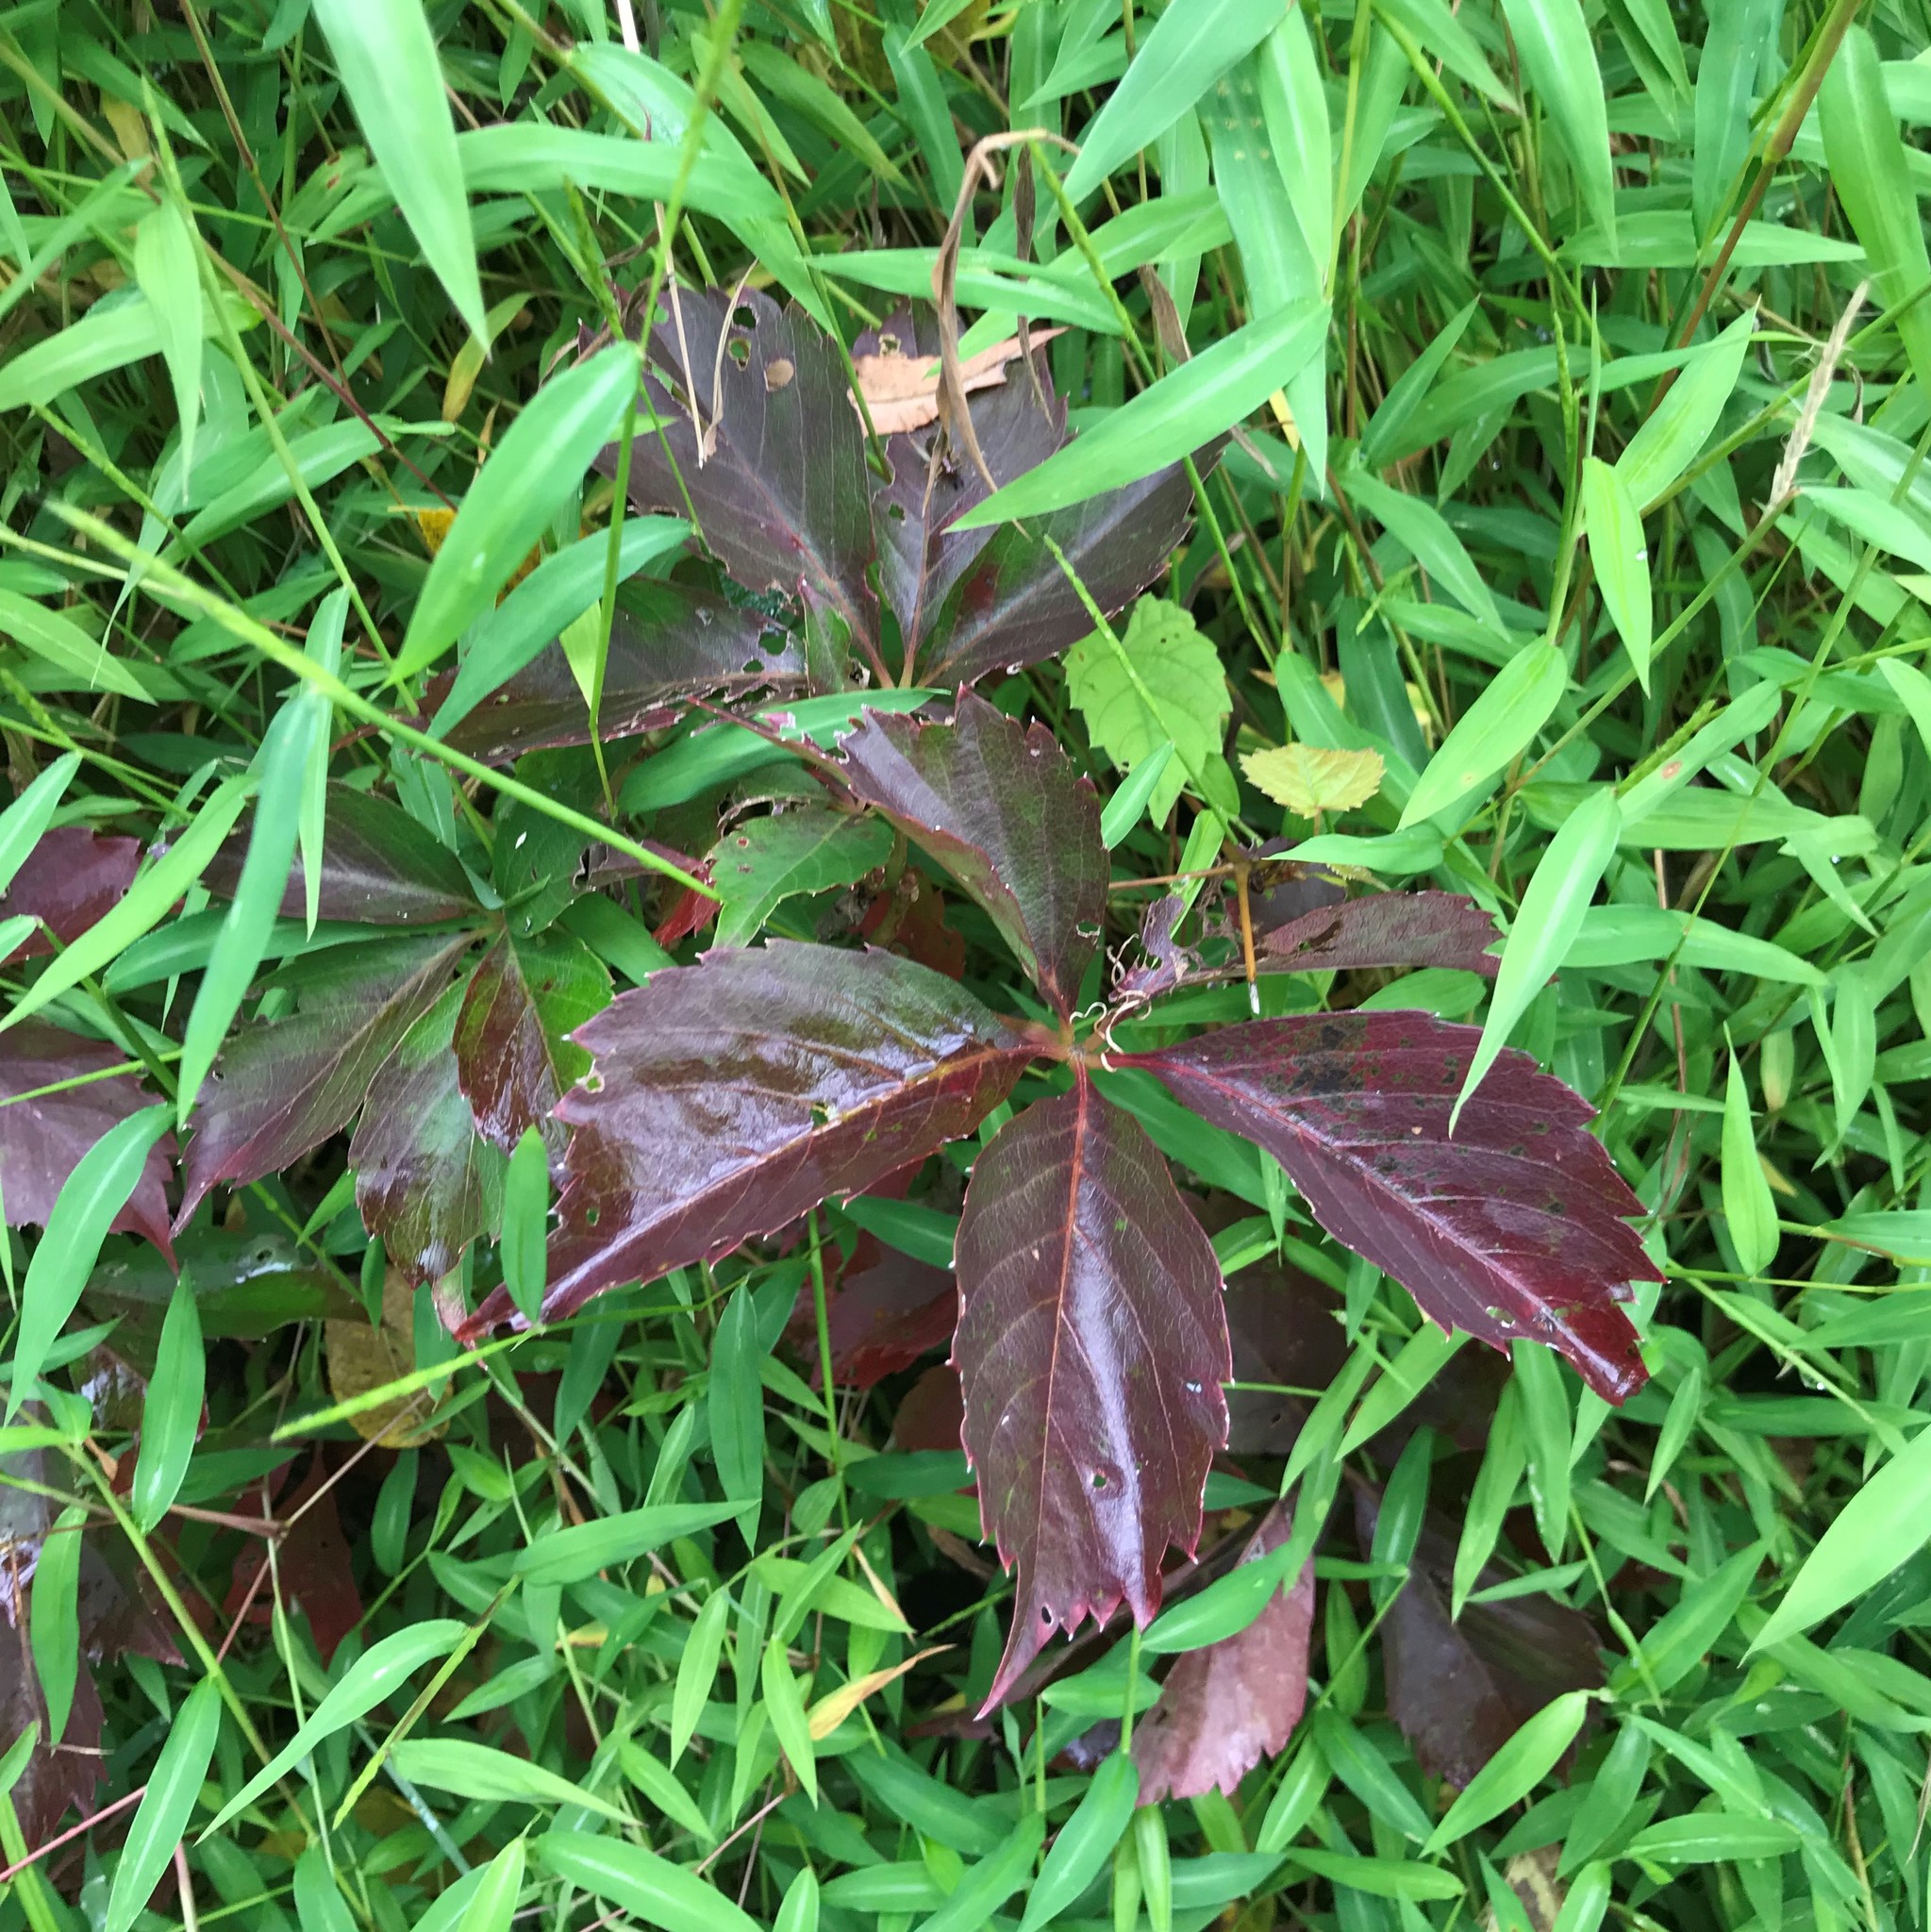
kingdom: Plantae
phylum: Tracheophyta
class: Magnoliopsida
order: Vitales
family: Vitaceae
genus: Parthenocissus
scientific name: Parthenocissus quinquefolia
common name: Virginia-creeper
